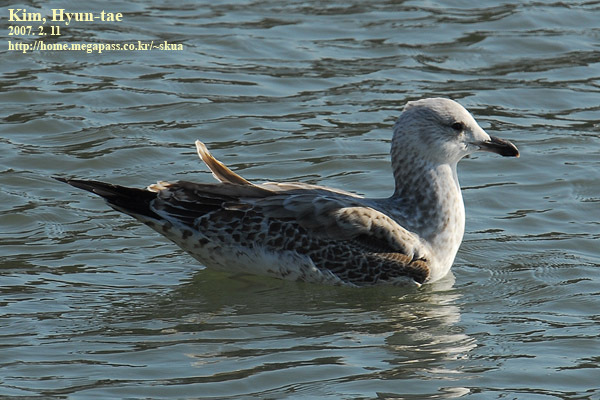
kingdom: Animalia
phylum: Chordata
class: Aves
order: Charadriiformes
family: Laridae
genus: Larus
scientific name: Larus fuscus
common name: Lesser black-backed gull
